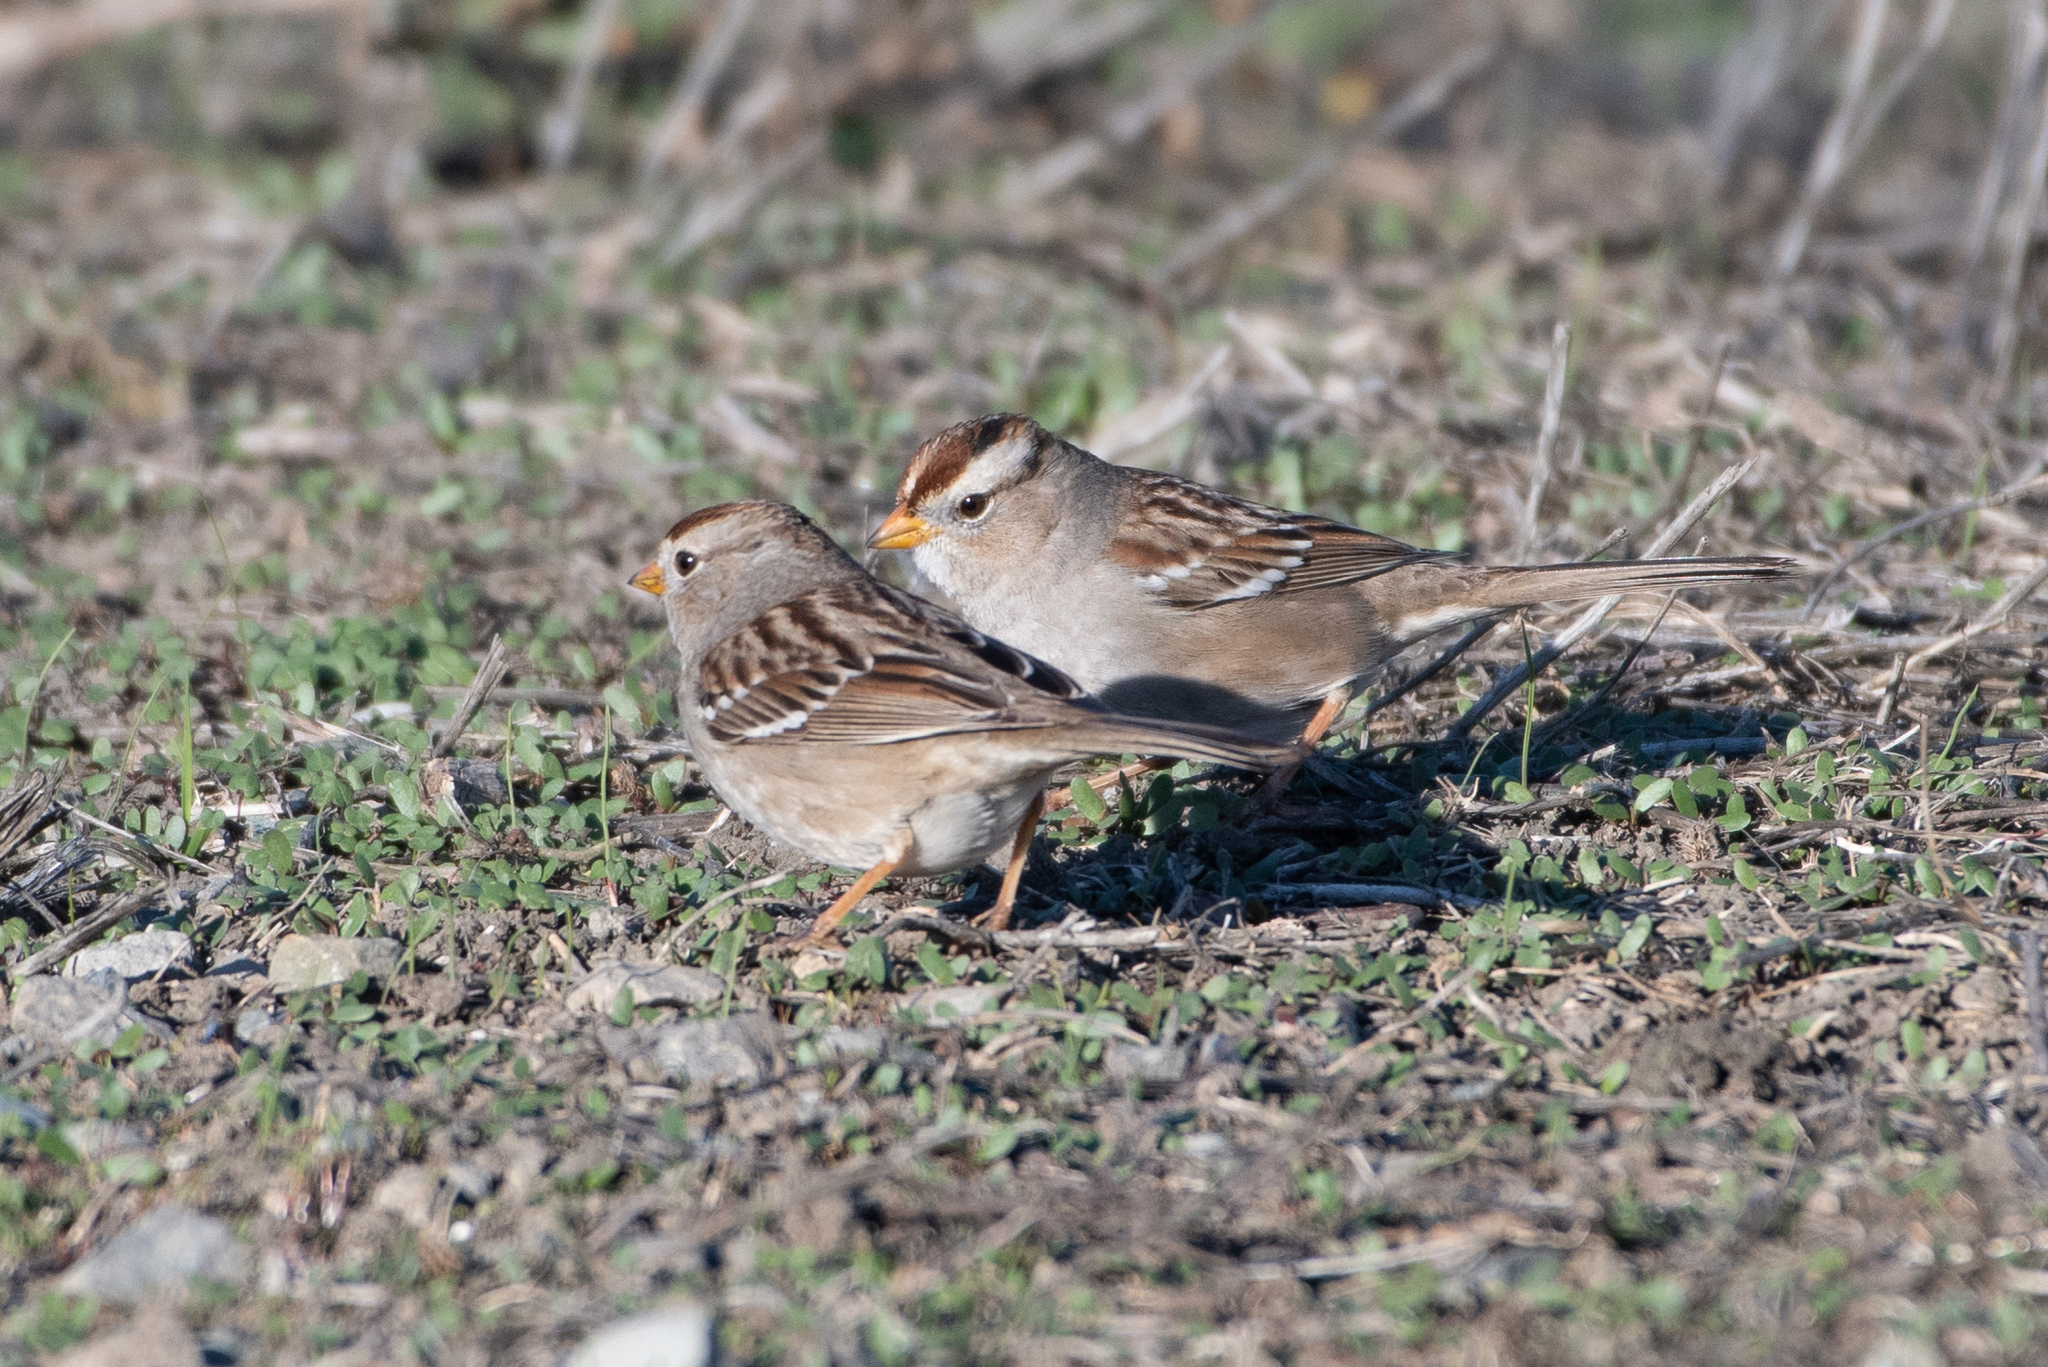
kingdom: Animalia
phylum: Chordata
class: Aves
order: Passeriformes
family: Passerellidae
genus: Zonotrichia
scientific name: Zonotrichia leucophrys
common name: White-crowned sparrow
